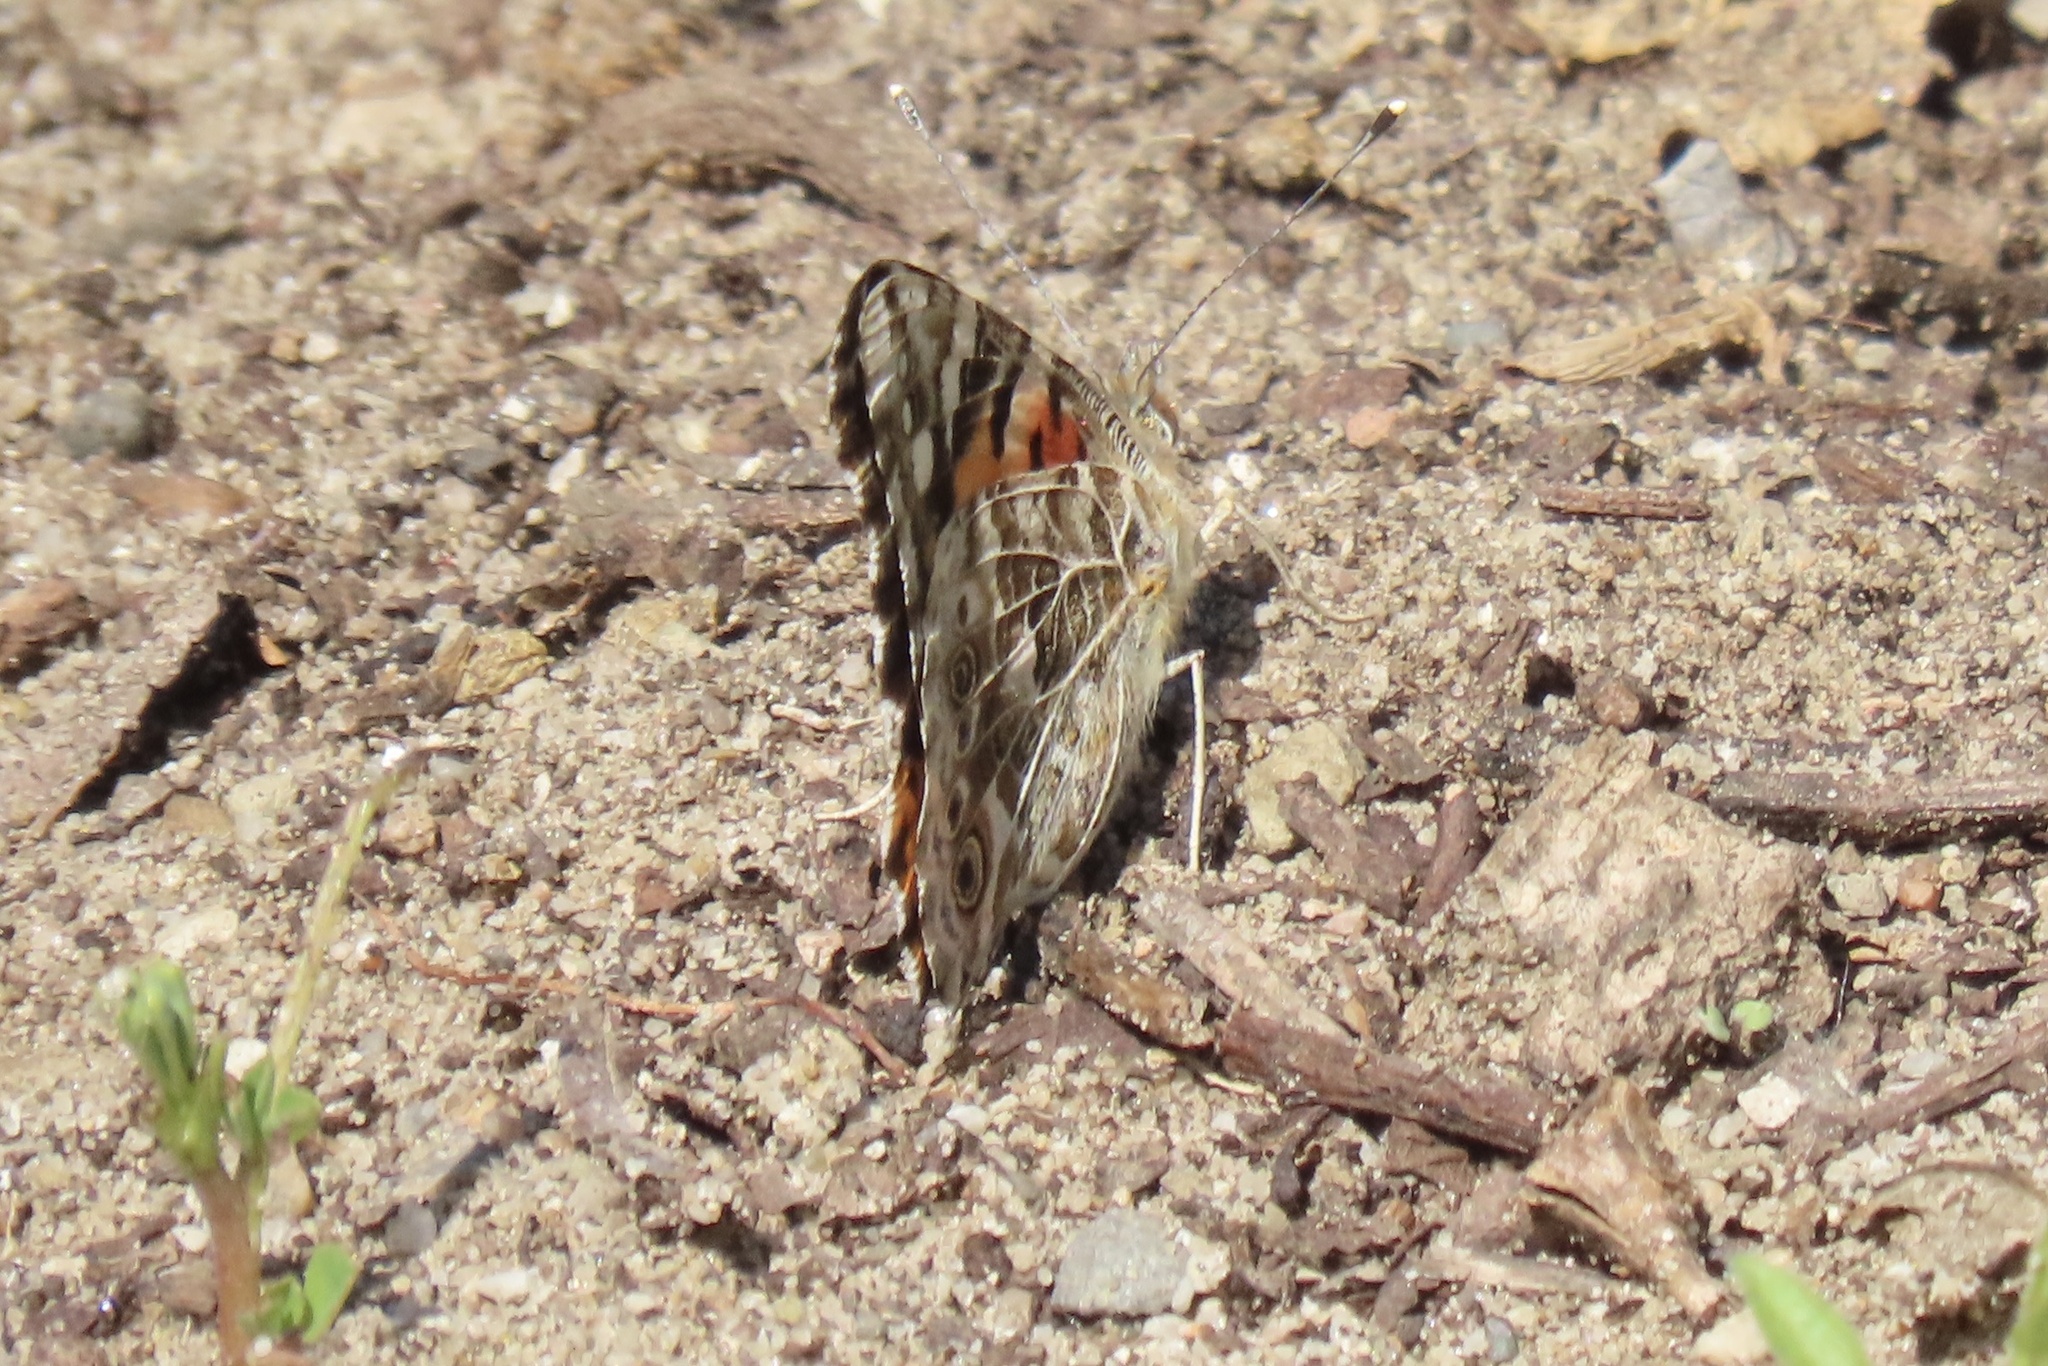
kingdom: Animalia
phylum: Arthropoda
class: Insecta
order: Lepidoptera
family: Nymphalidae
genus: Vanessa
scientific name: Vanessa cardui
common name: Painted lady
